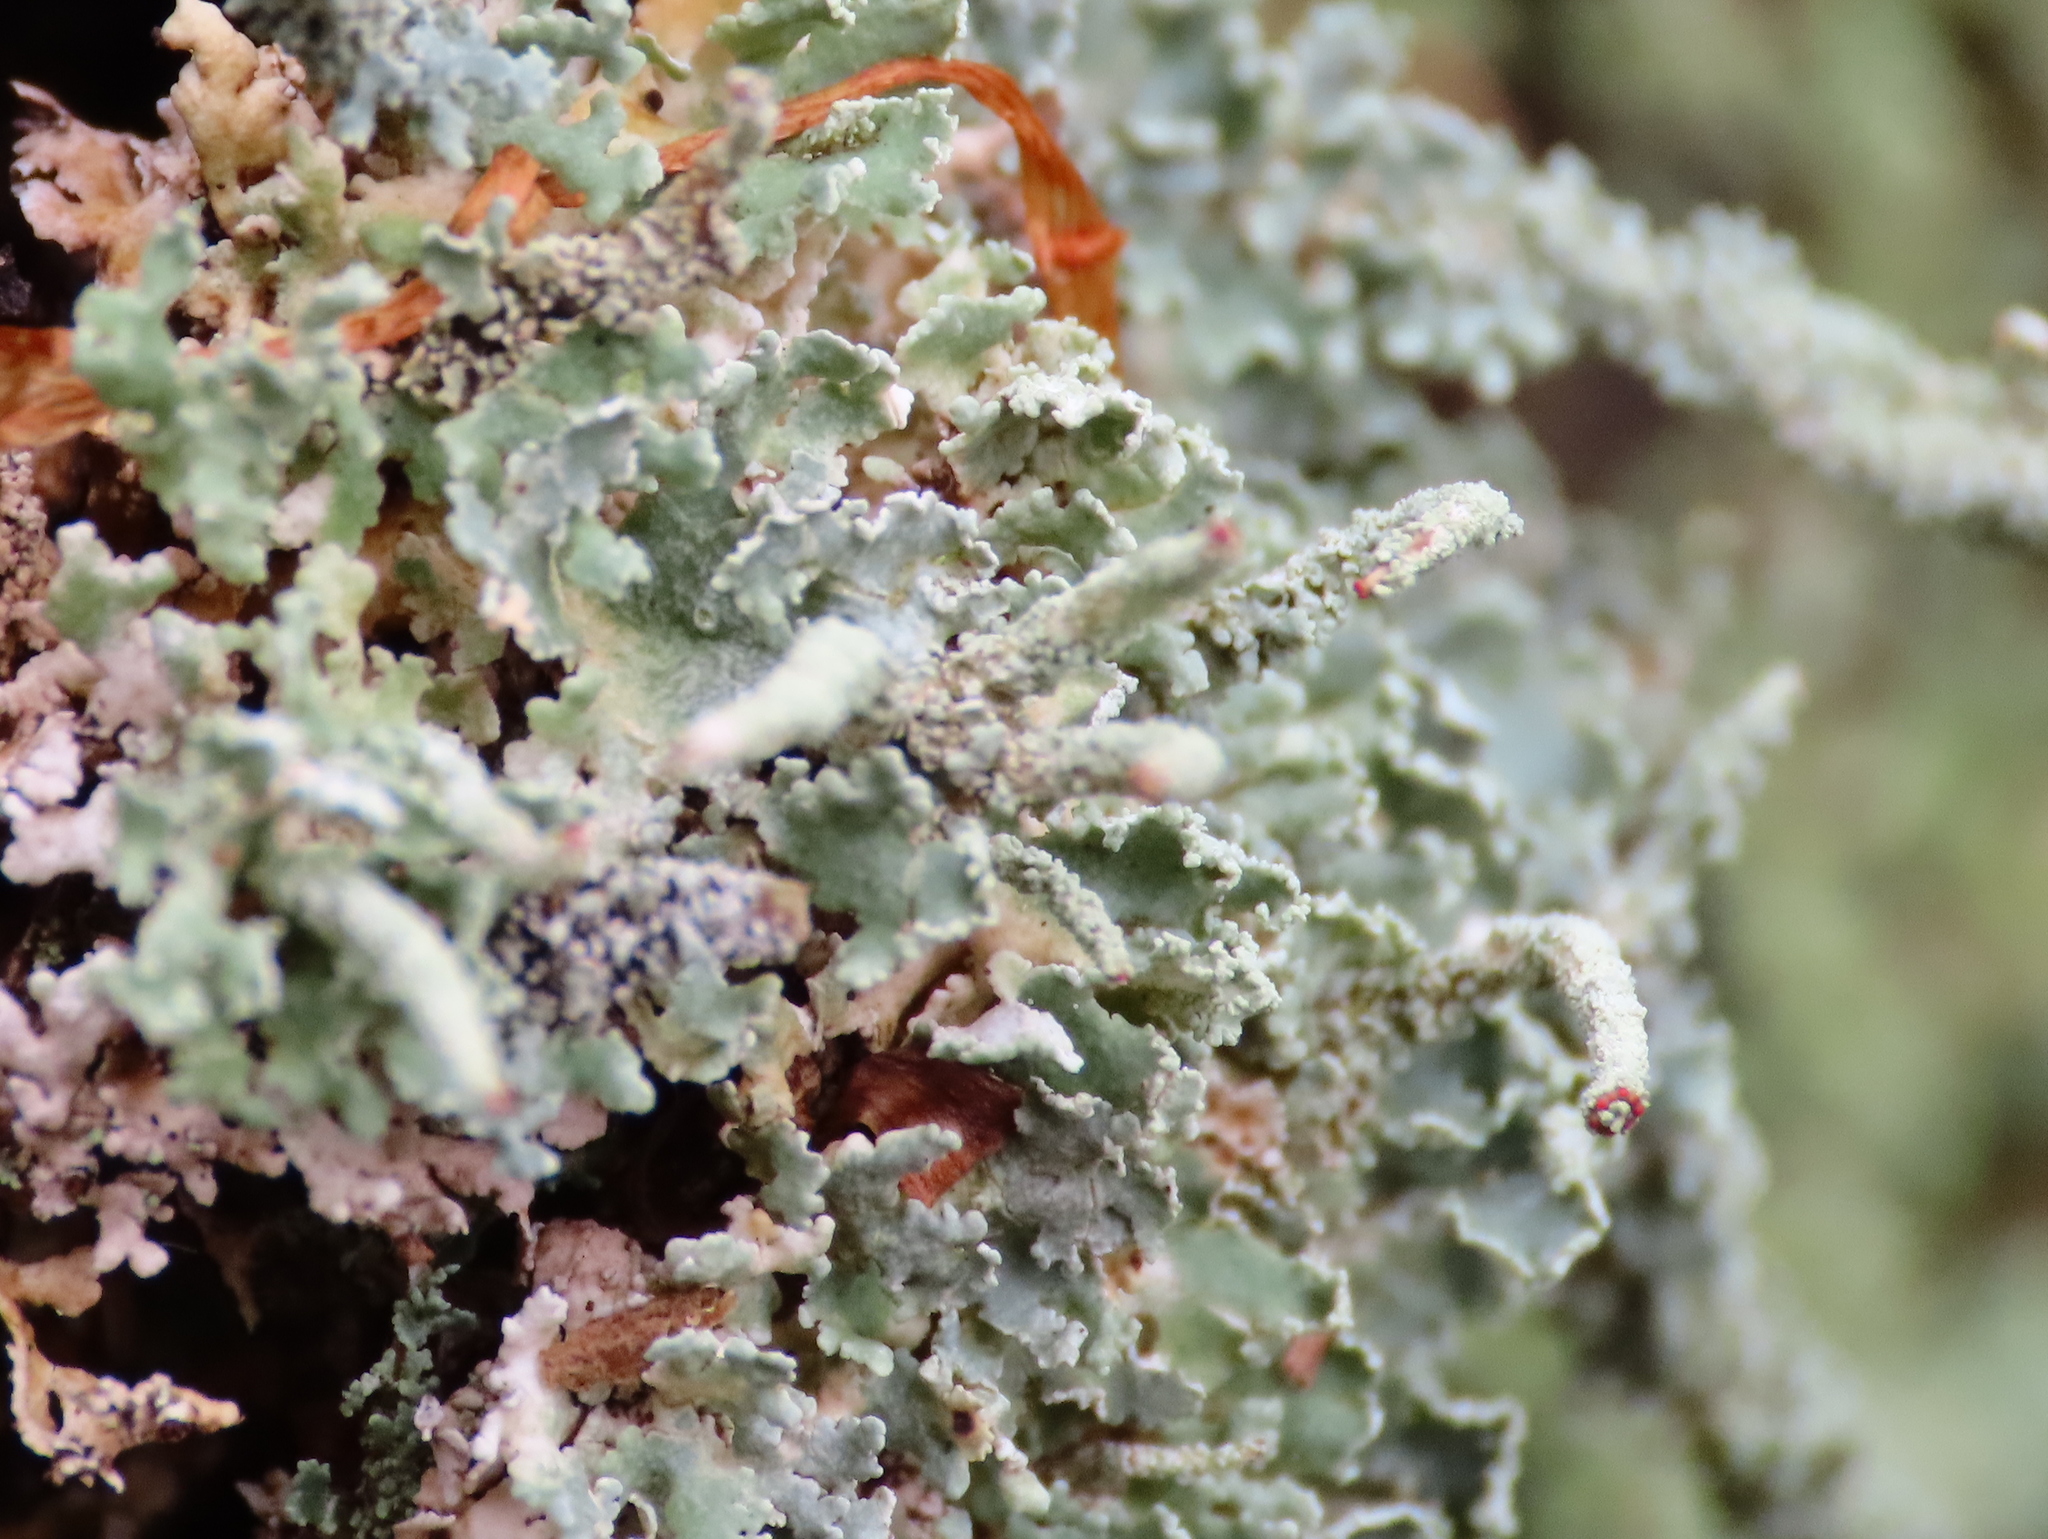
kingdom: Fungi
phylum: Ascomycota
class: Lecanoromycetes
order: Lecanorales
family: Cladoniaceae
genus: Cladonia
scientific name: Cladonia polydactyla
